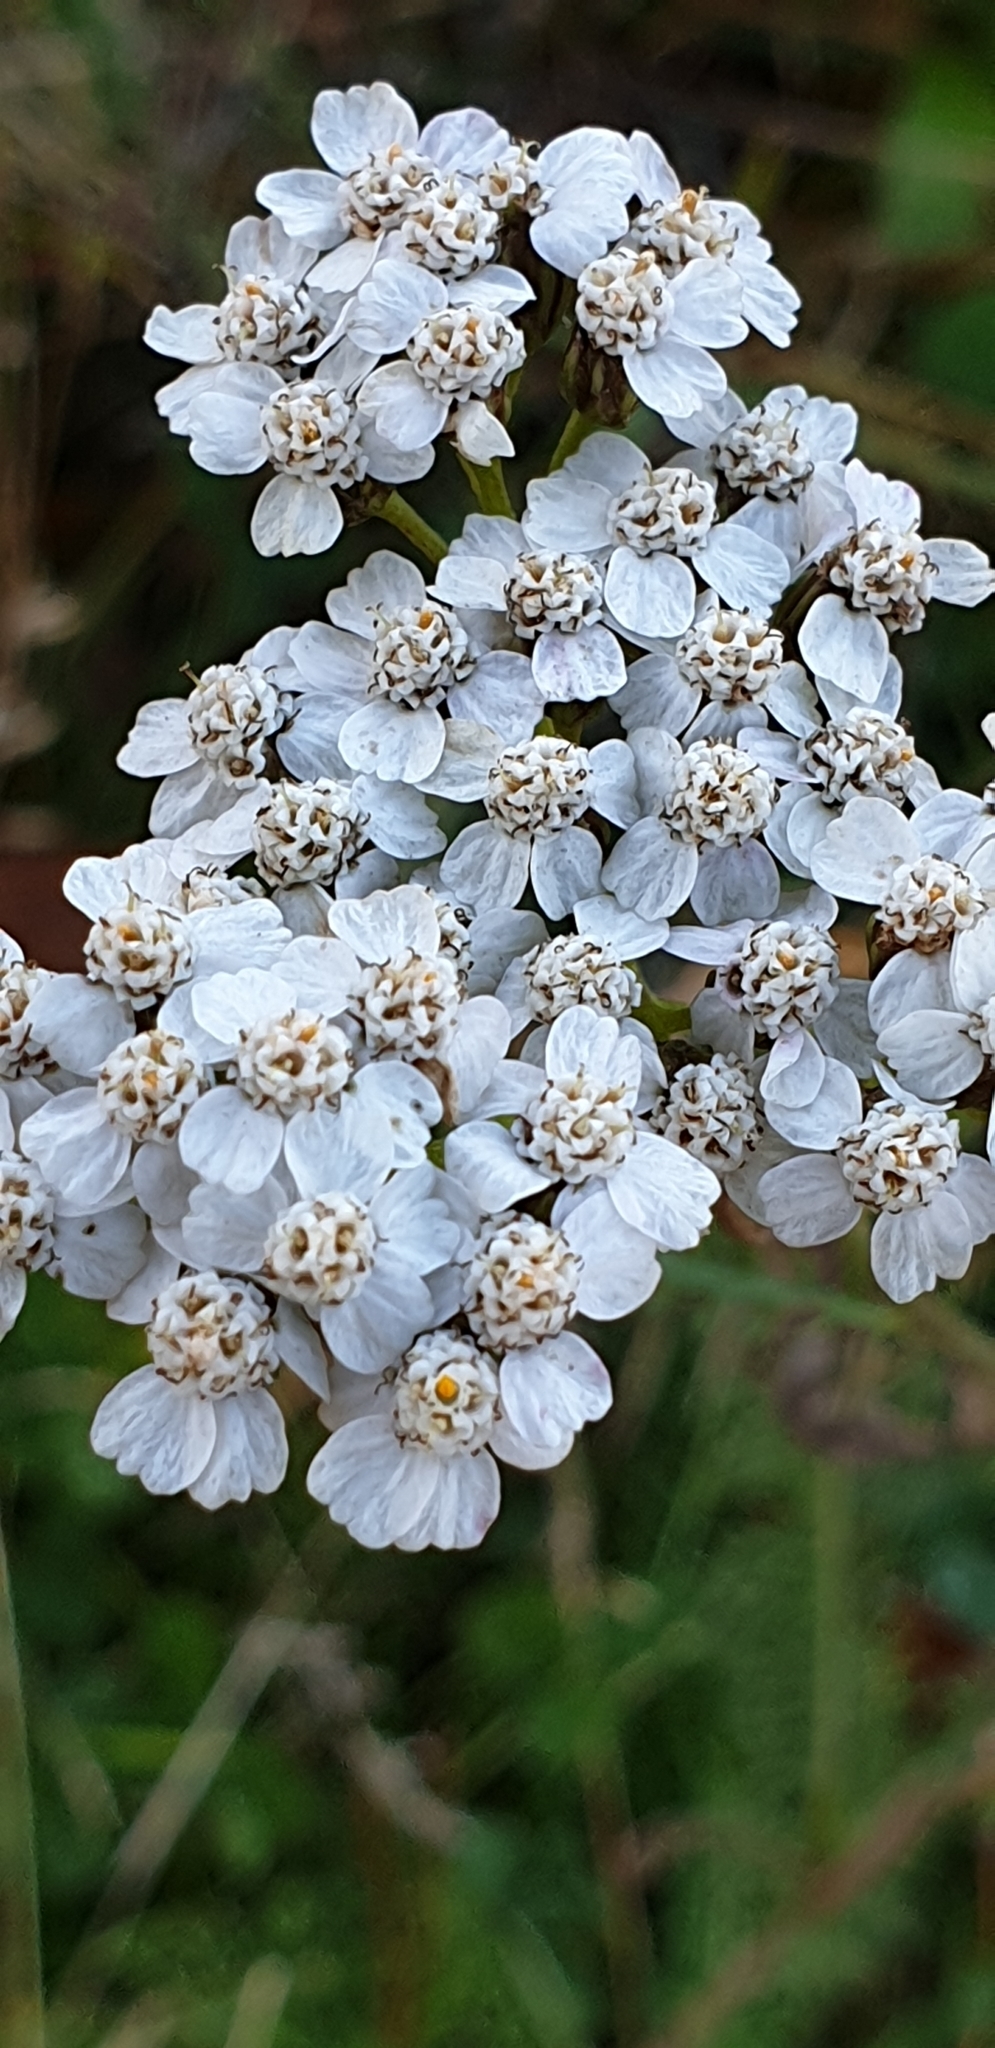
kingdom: Plantae
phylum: Tracheophyta
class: Magnoliopsida
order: Asterales
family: Asteraceae
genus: Achillea
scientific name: Achillea millefolium
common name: Yarrow
